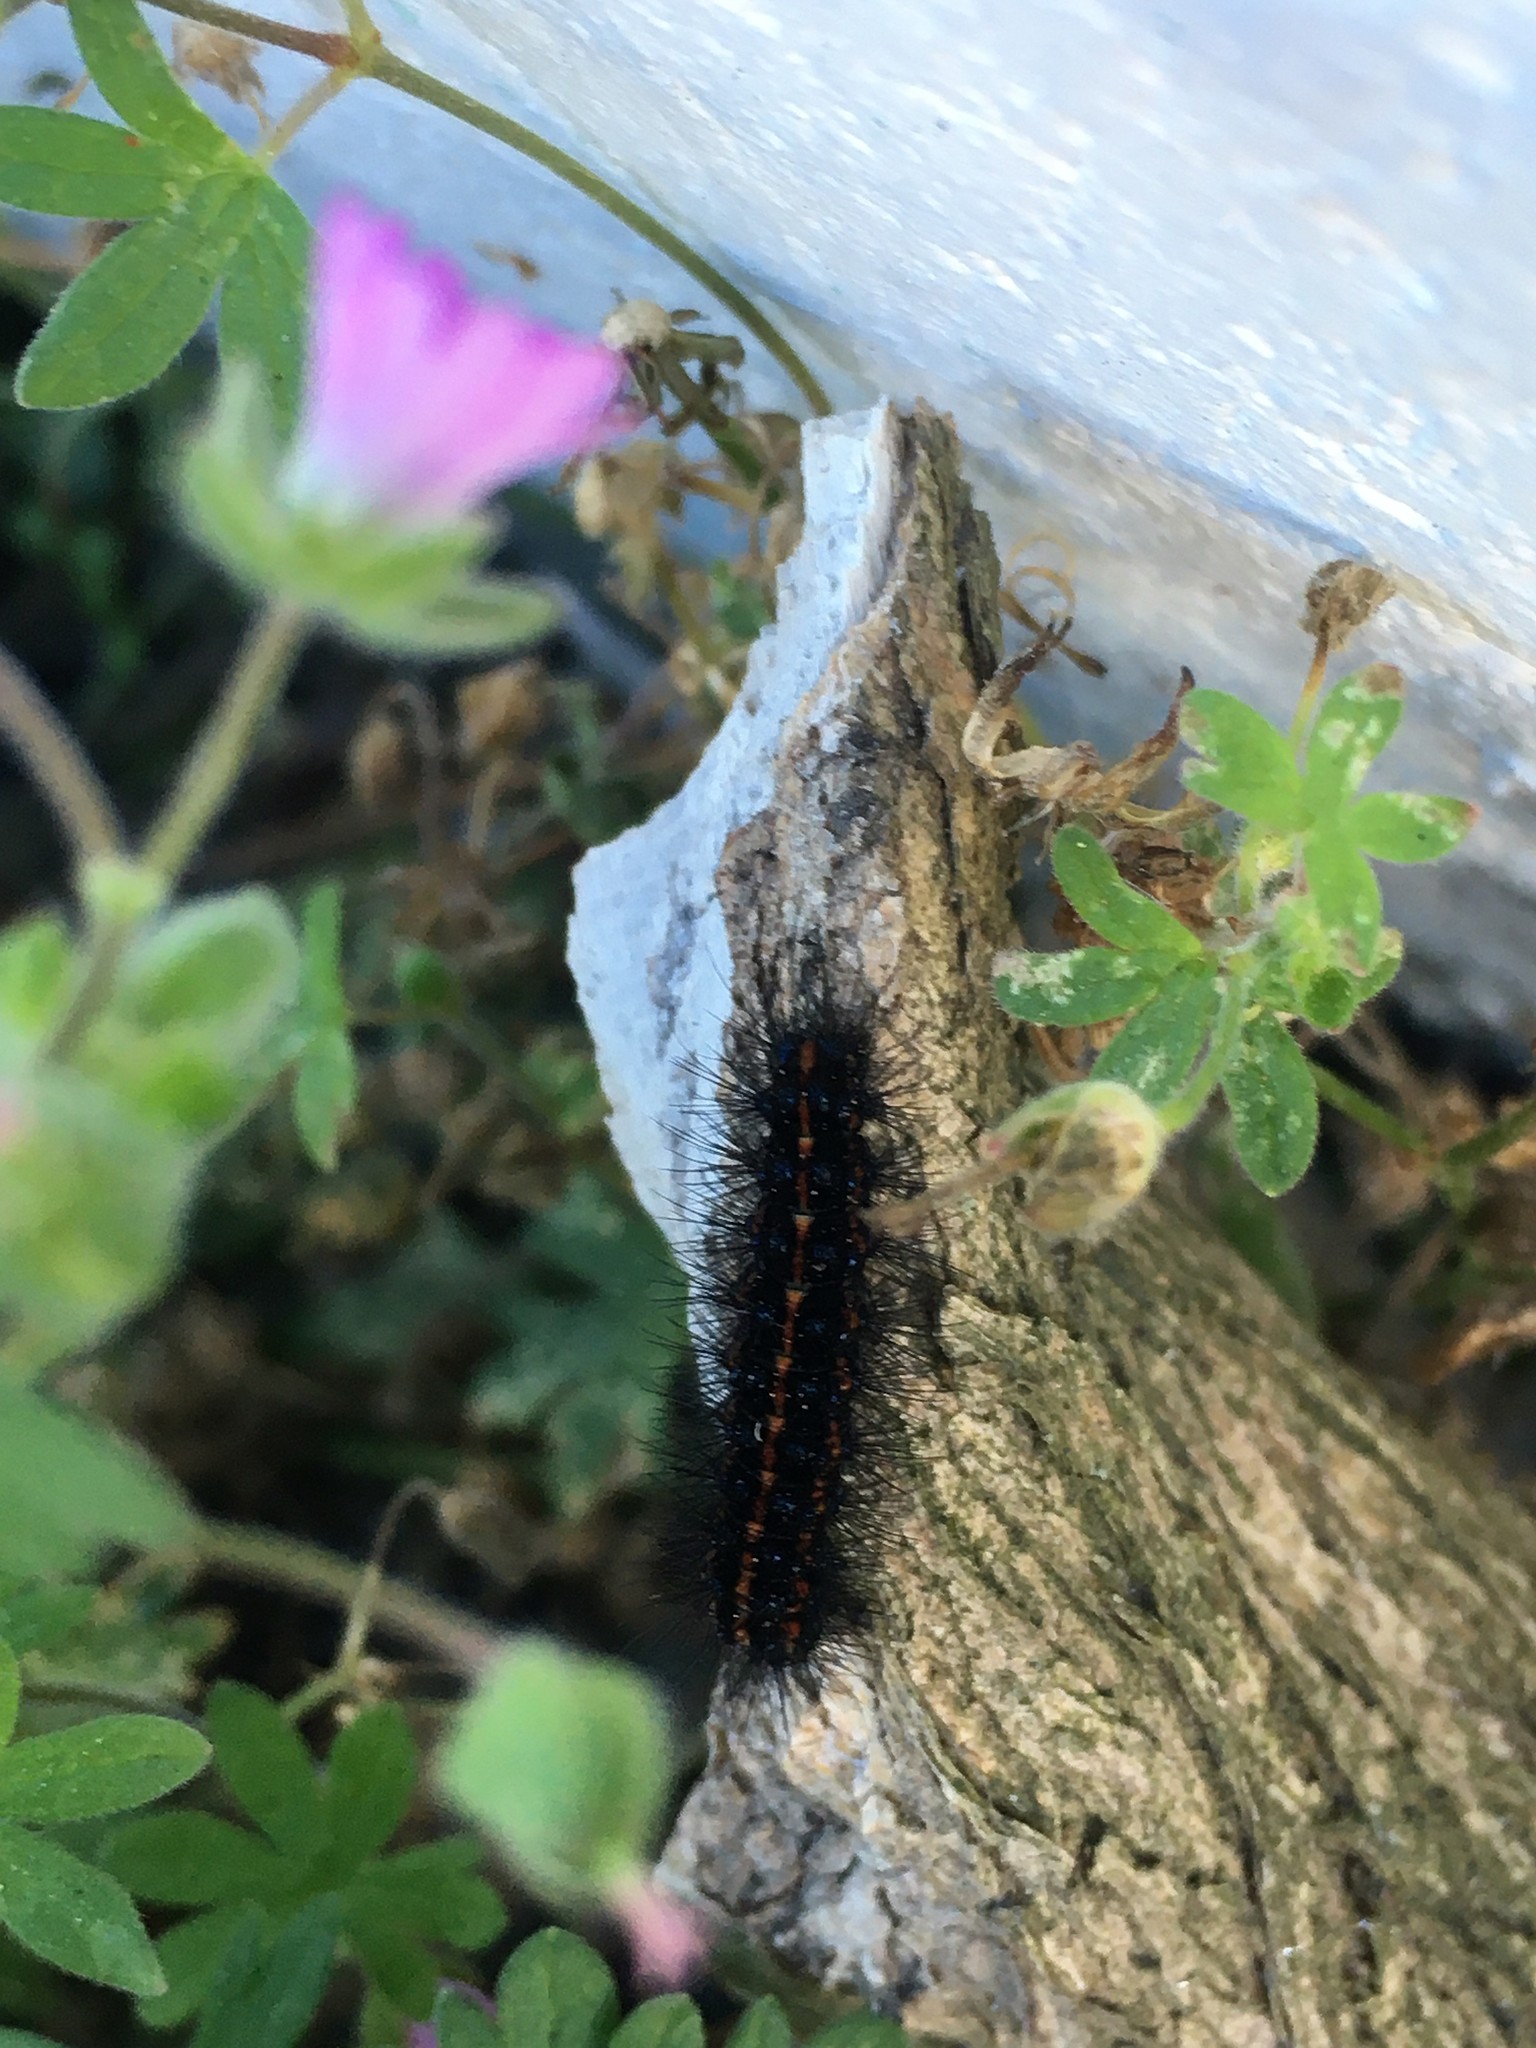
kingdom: Animalia
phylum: Arthropoda
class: Insecta
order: Lepidoptera
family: Erebidae
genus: Nyctemera
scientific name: Nyctemera annulatum
